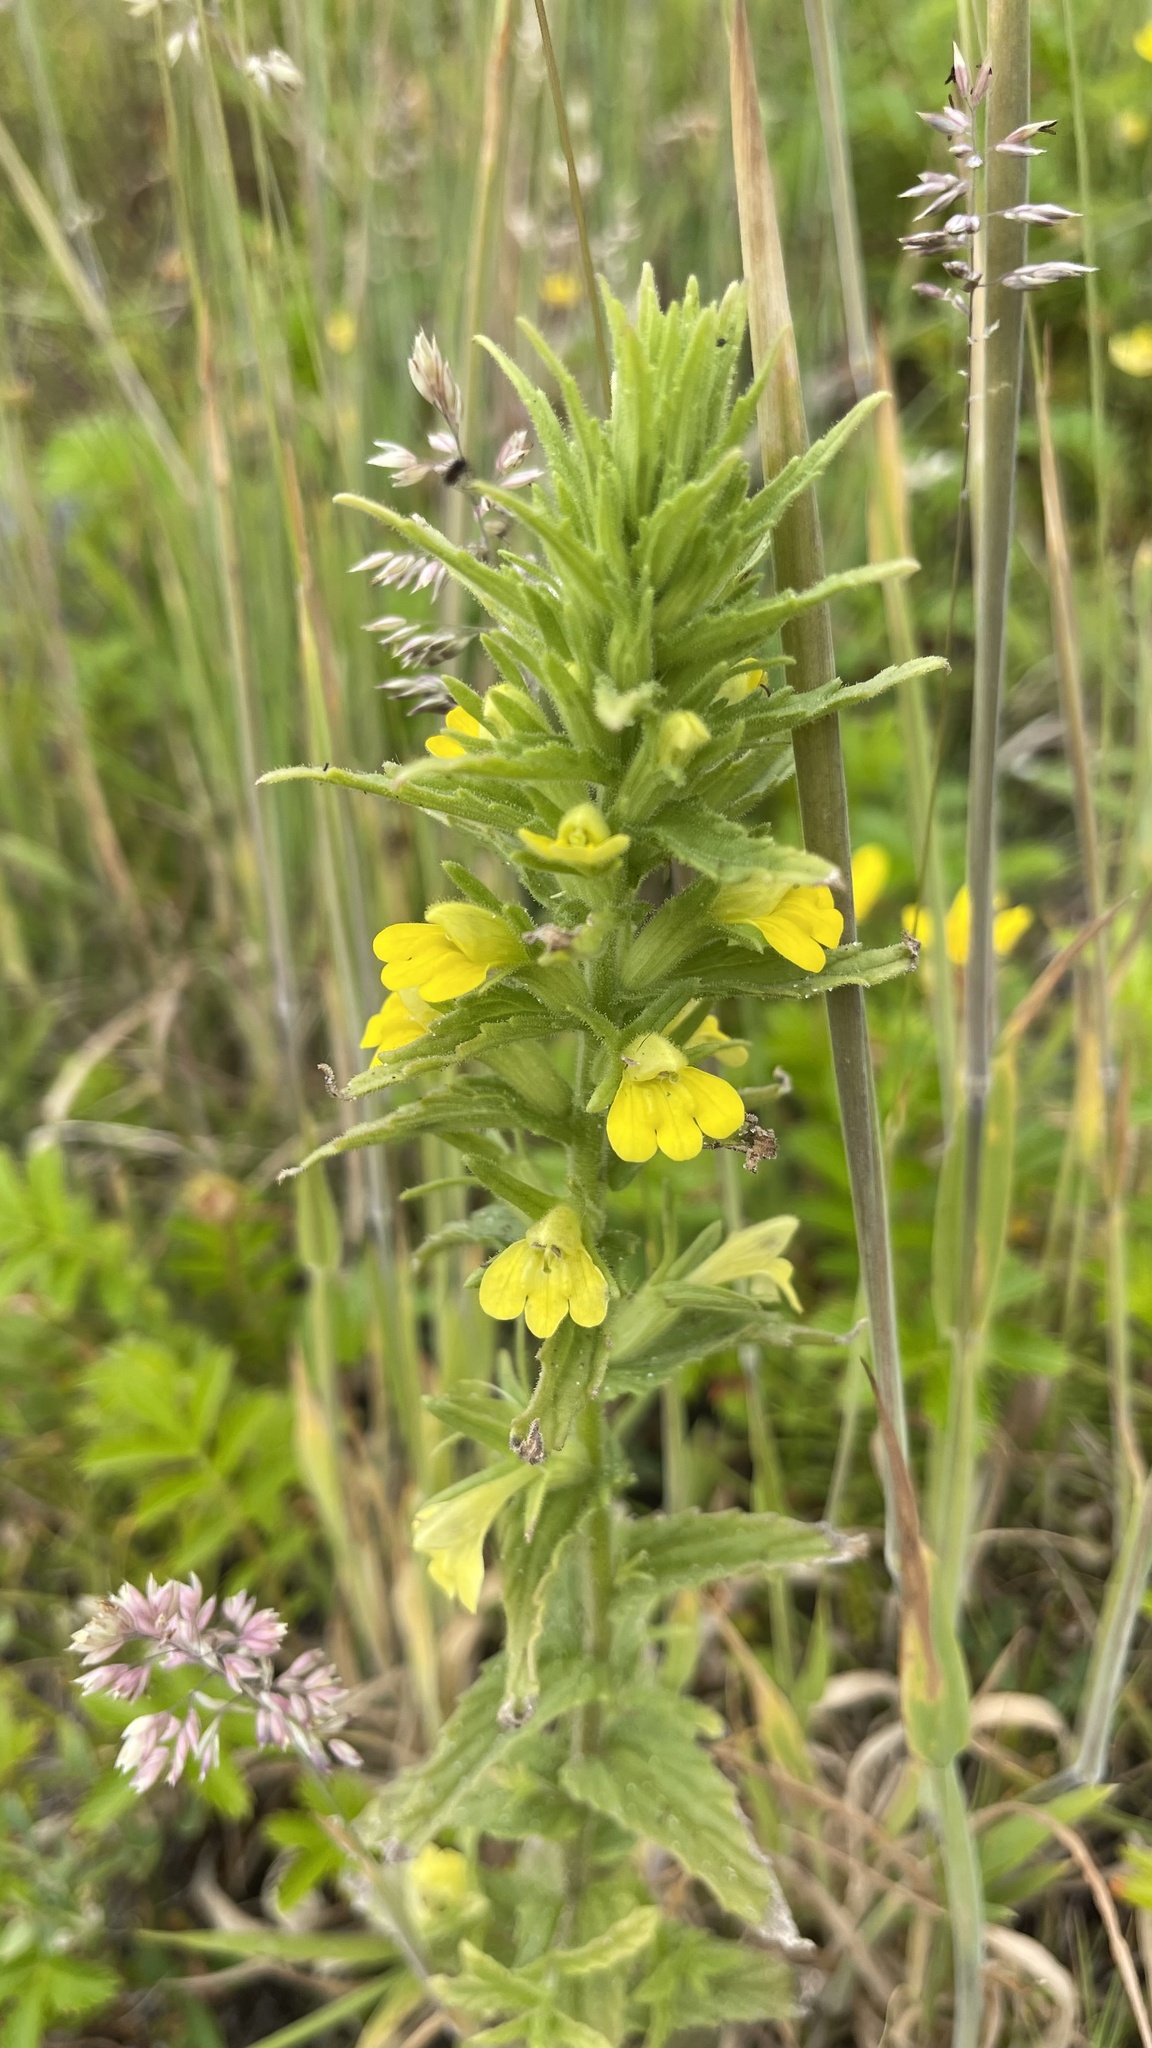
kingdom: Plantae
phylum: Tracheophyta
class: Magnoliopsida
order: Lamiales
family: Orobanchaceae
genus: Bellardia
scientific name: Bellardia viscosa
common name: Sticky parentucellia
